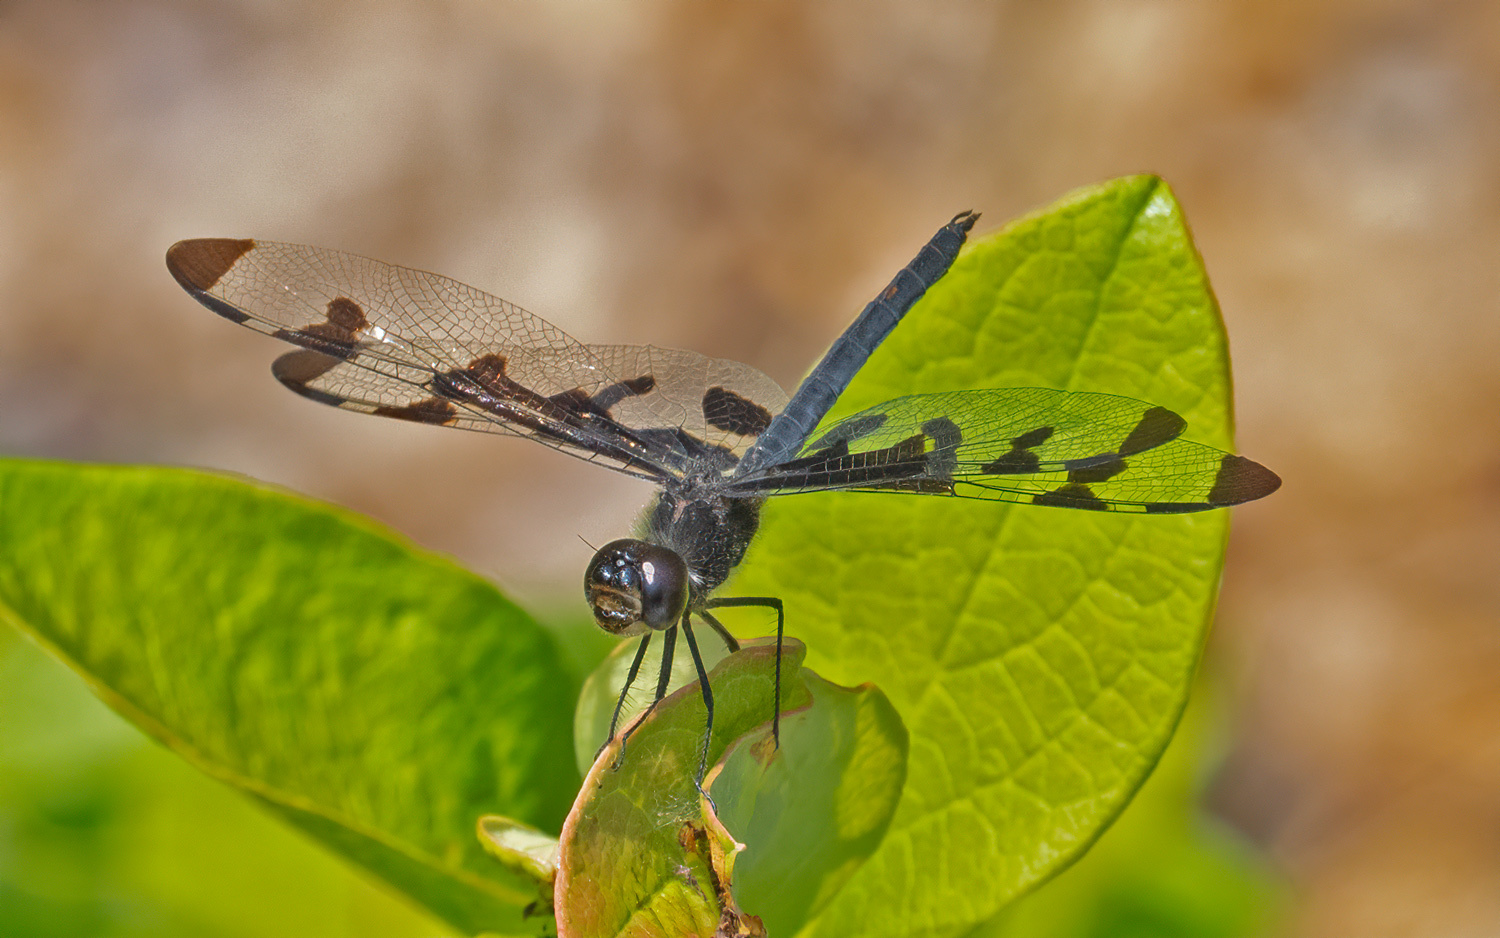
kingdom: Animalia
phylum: Arthropoda
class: Insecta
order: Odonata
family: Libellulidae
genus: Celithemis
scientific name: Celithemis fasciata
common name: Banded pennant
